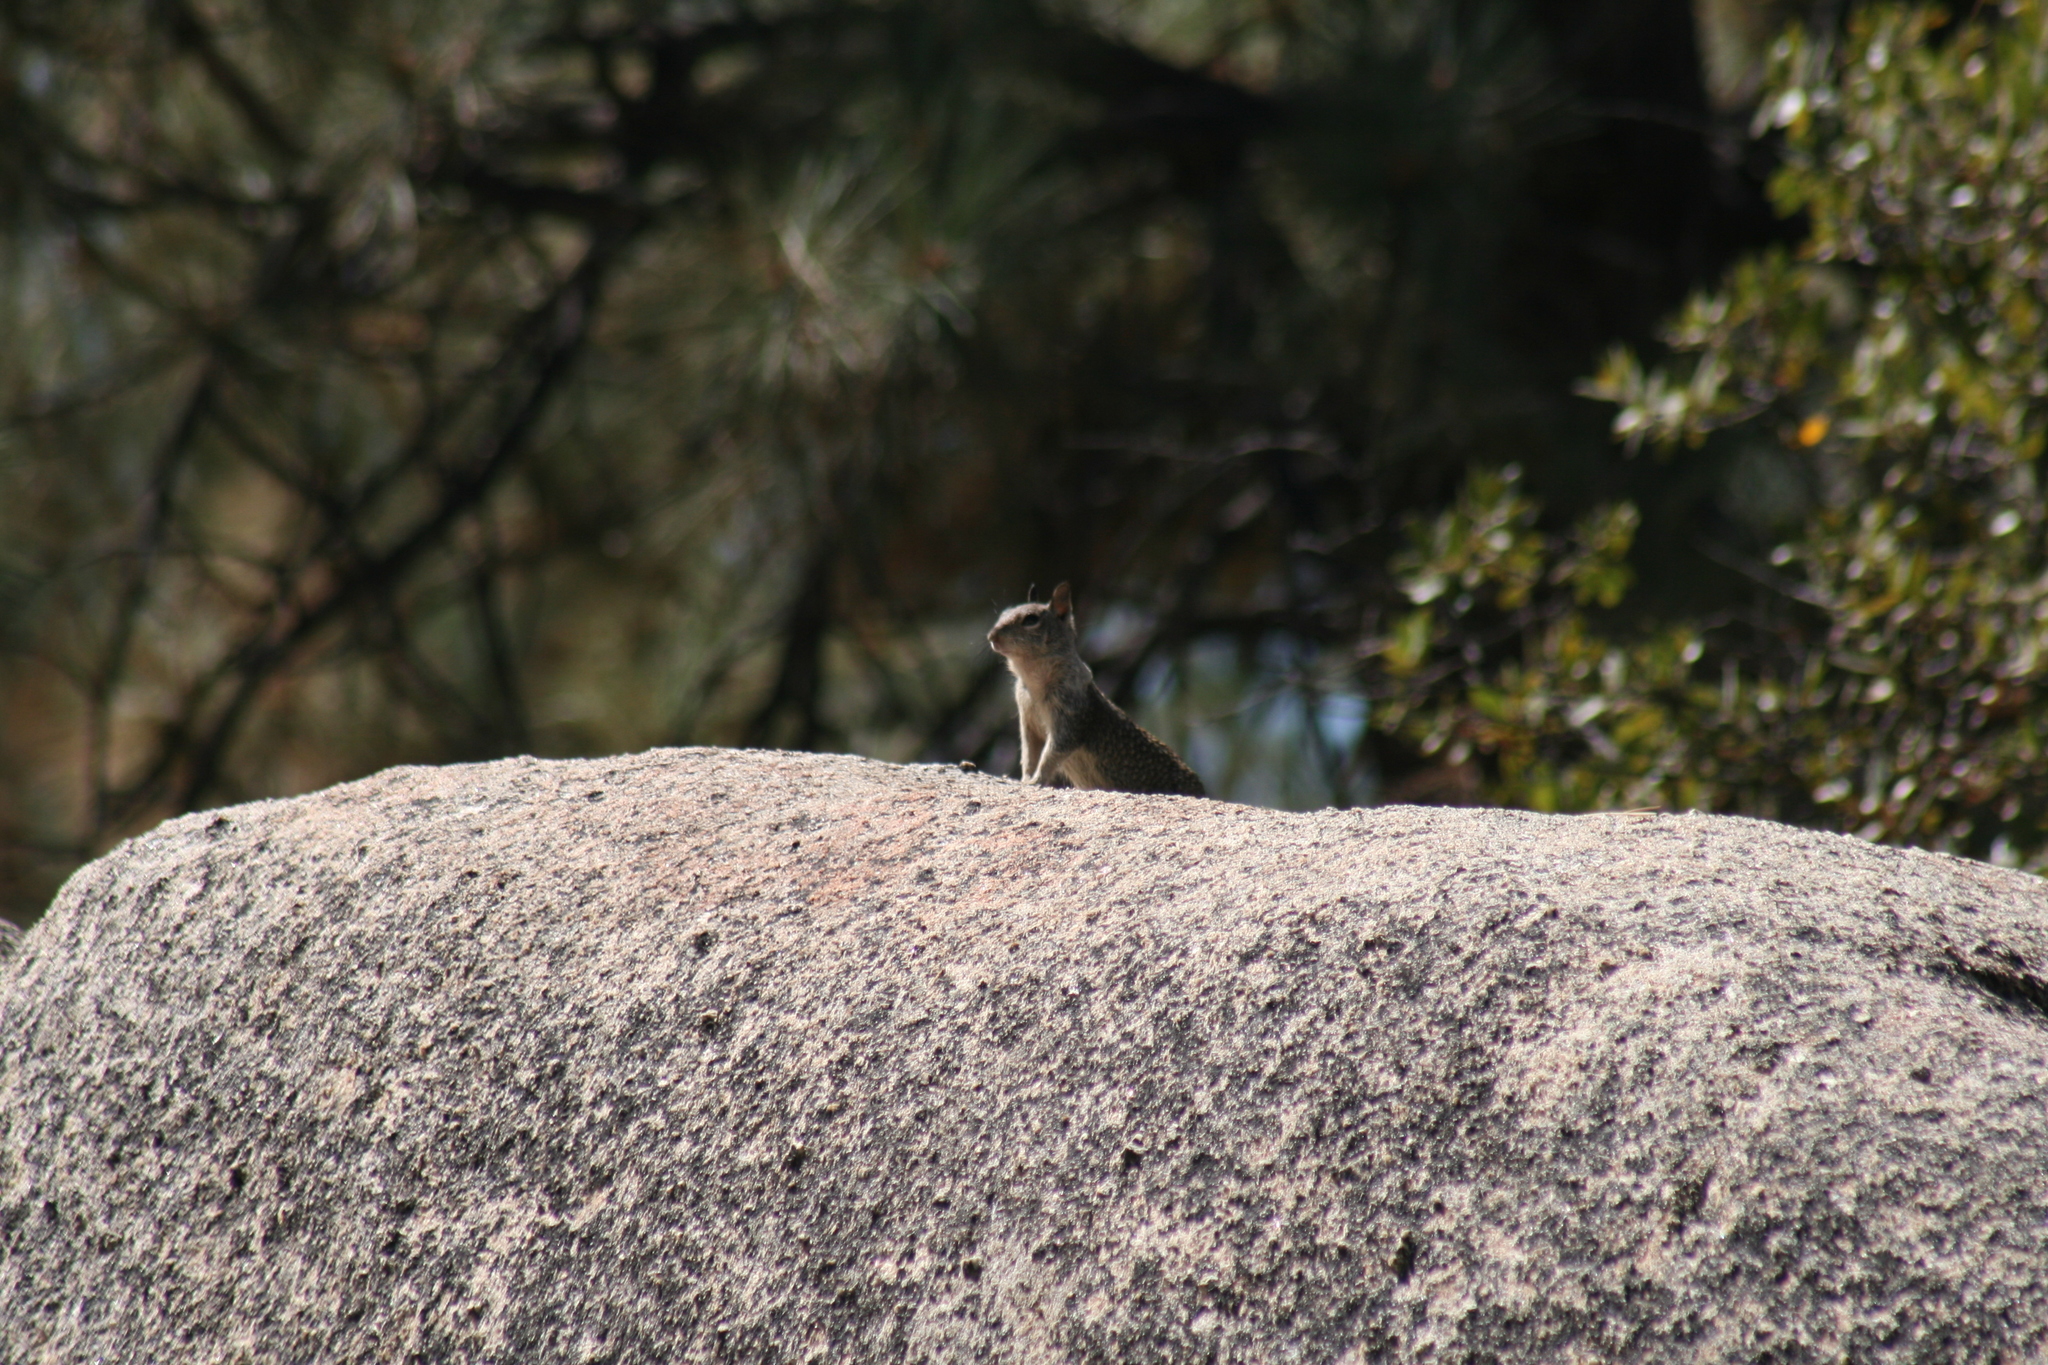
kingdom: Animalia
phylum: Chordata
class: Mammalia
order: Rodentia
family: Sciuridae
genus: Otospermophilus
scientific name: Otospermophilus beecheyi
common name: California ground squirrel
